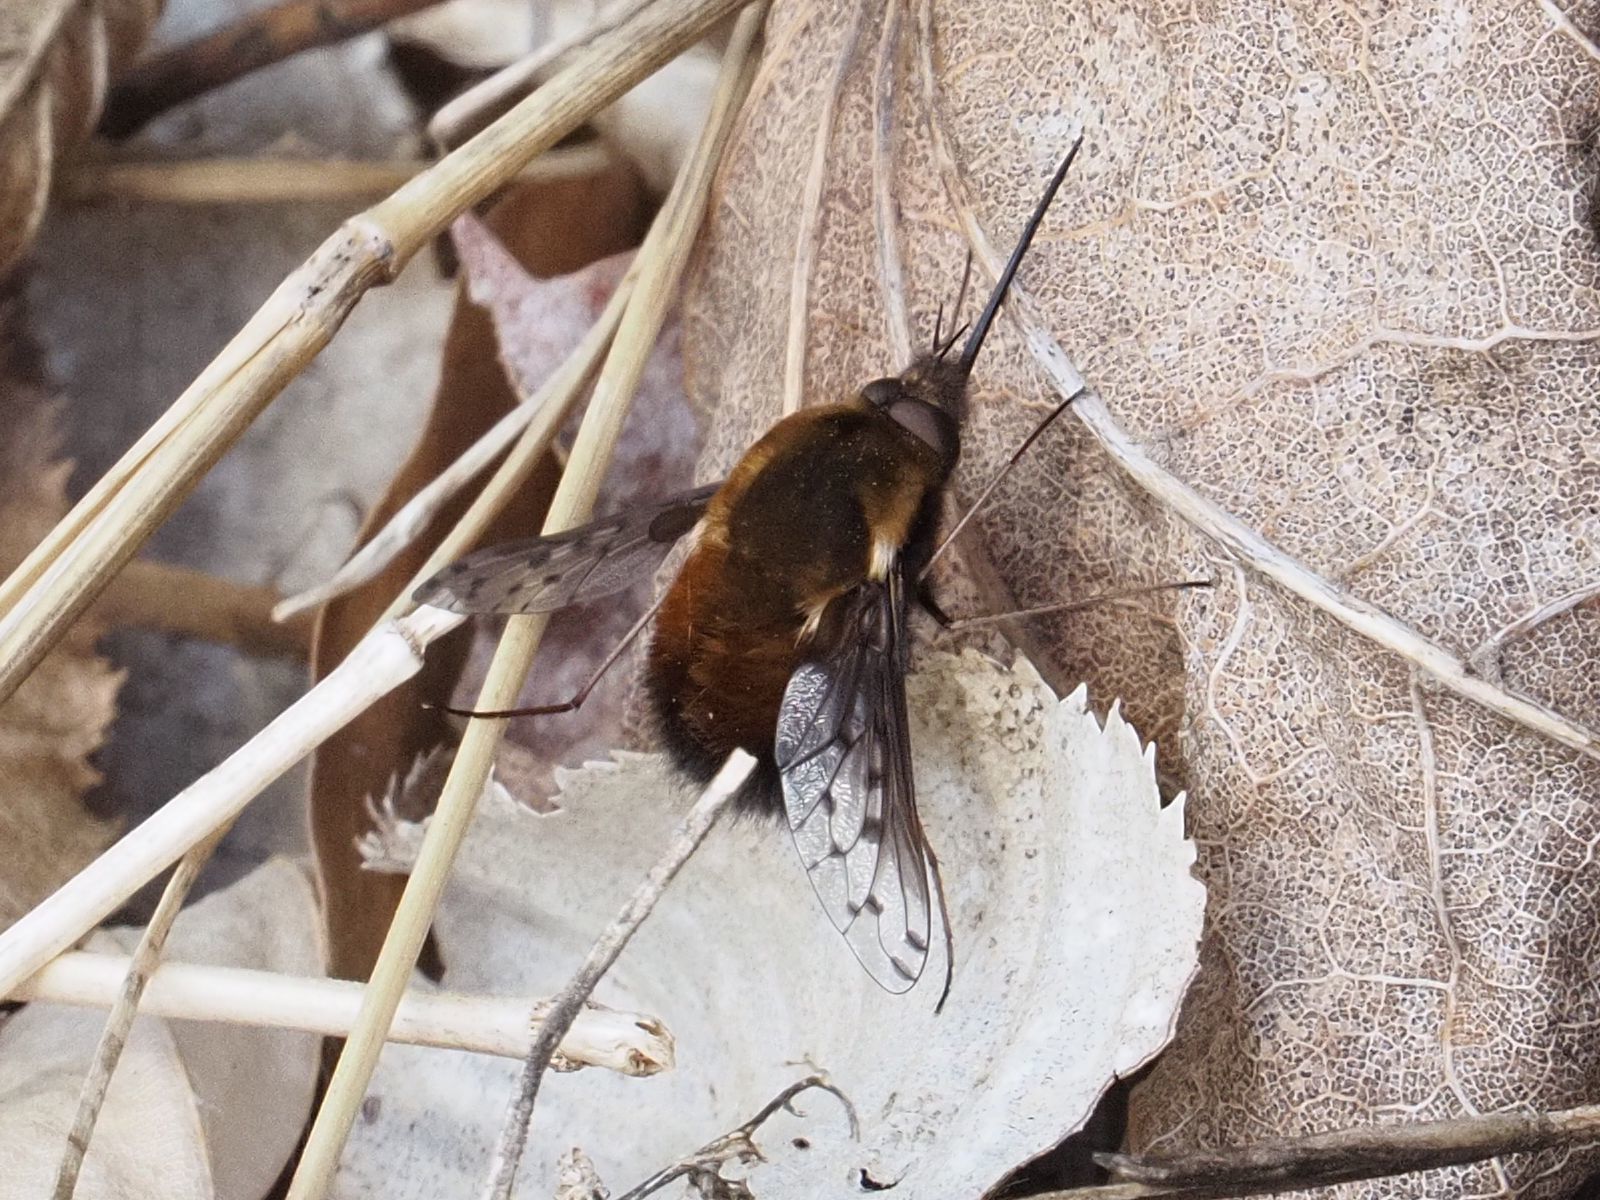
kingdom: Animalia
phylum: Arthropoda
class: Insecta
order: Diptera
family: Bombyliidae
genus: Bombylius
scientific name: Bombylius discolor
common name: Dotted bee-fly
